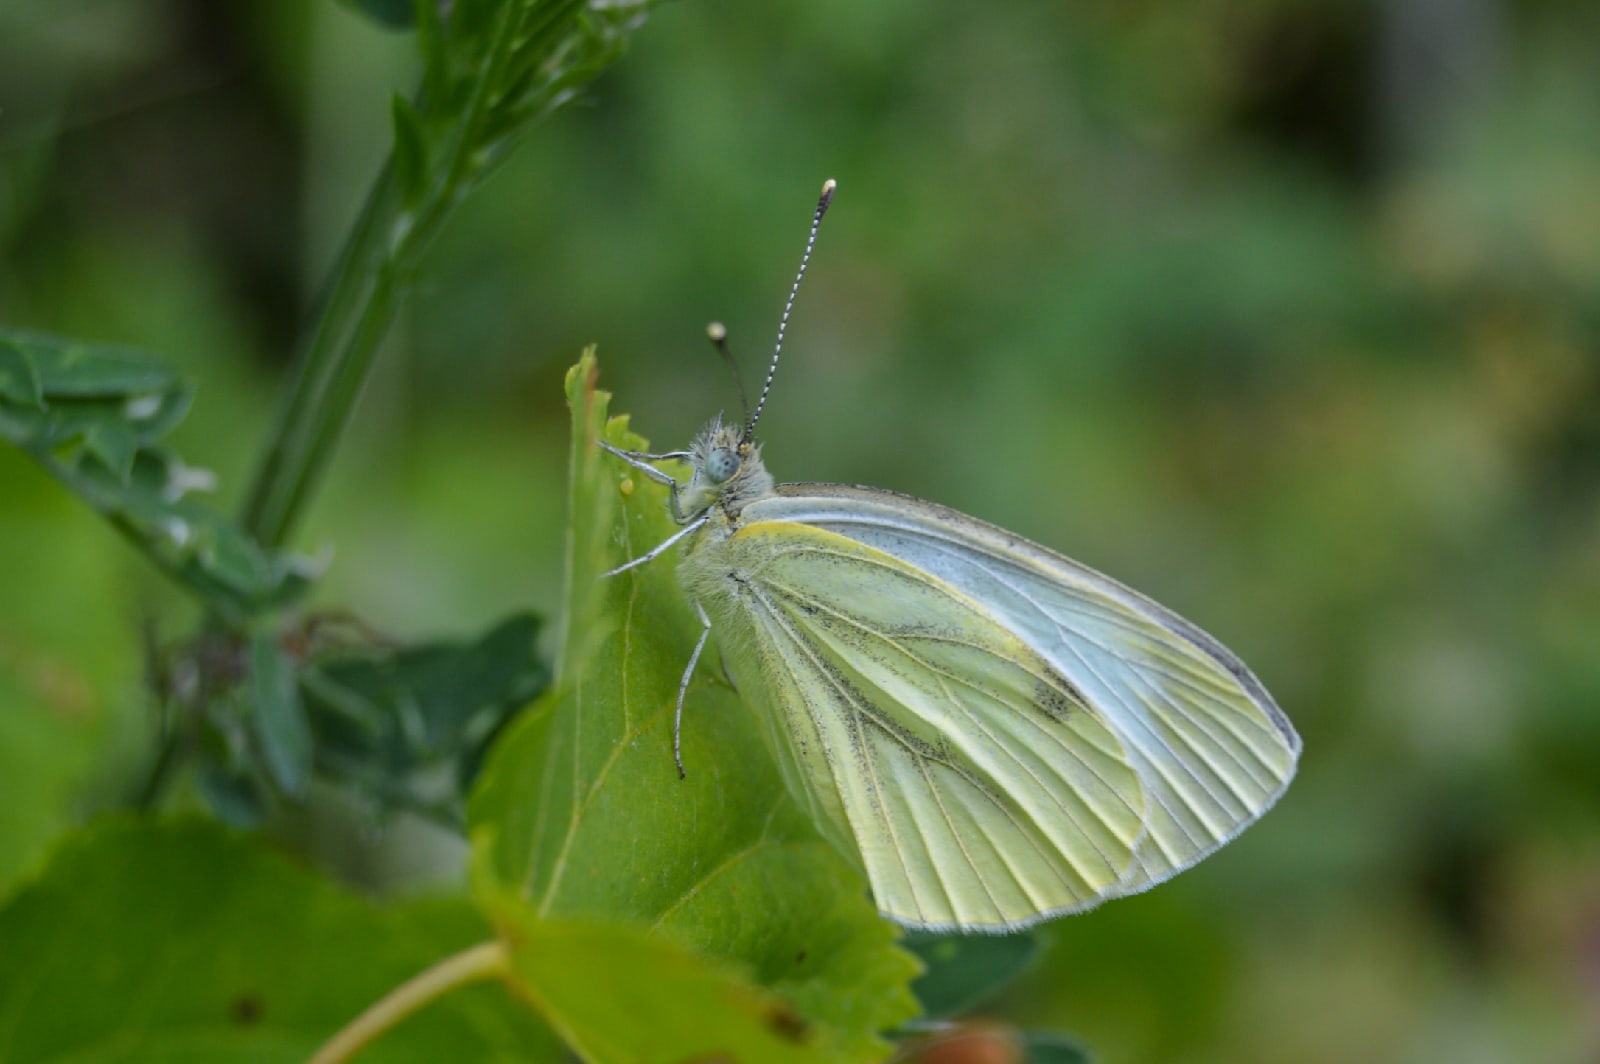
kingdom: Animalia
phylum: Arthropoda
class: Insecta
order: Lepidoptera
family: Pieridae
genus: Pieris
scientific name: Pieris napi
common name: Green-veined white
